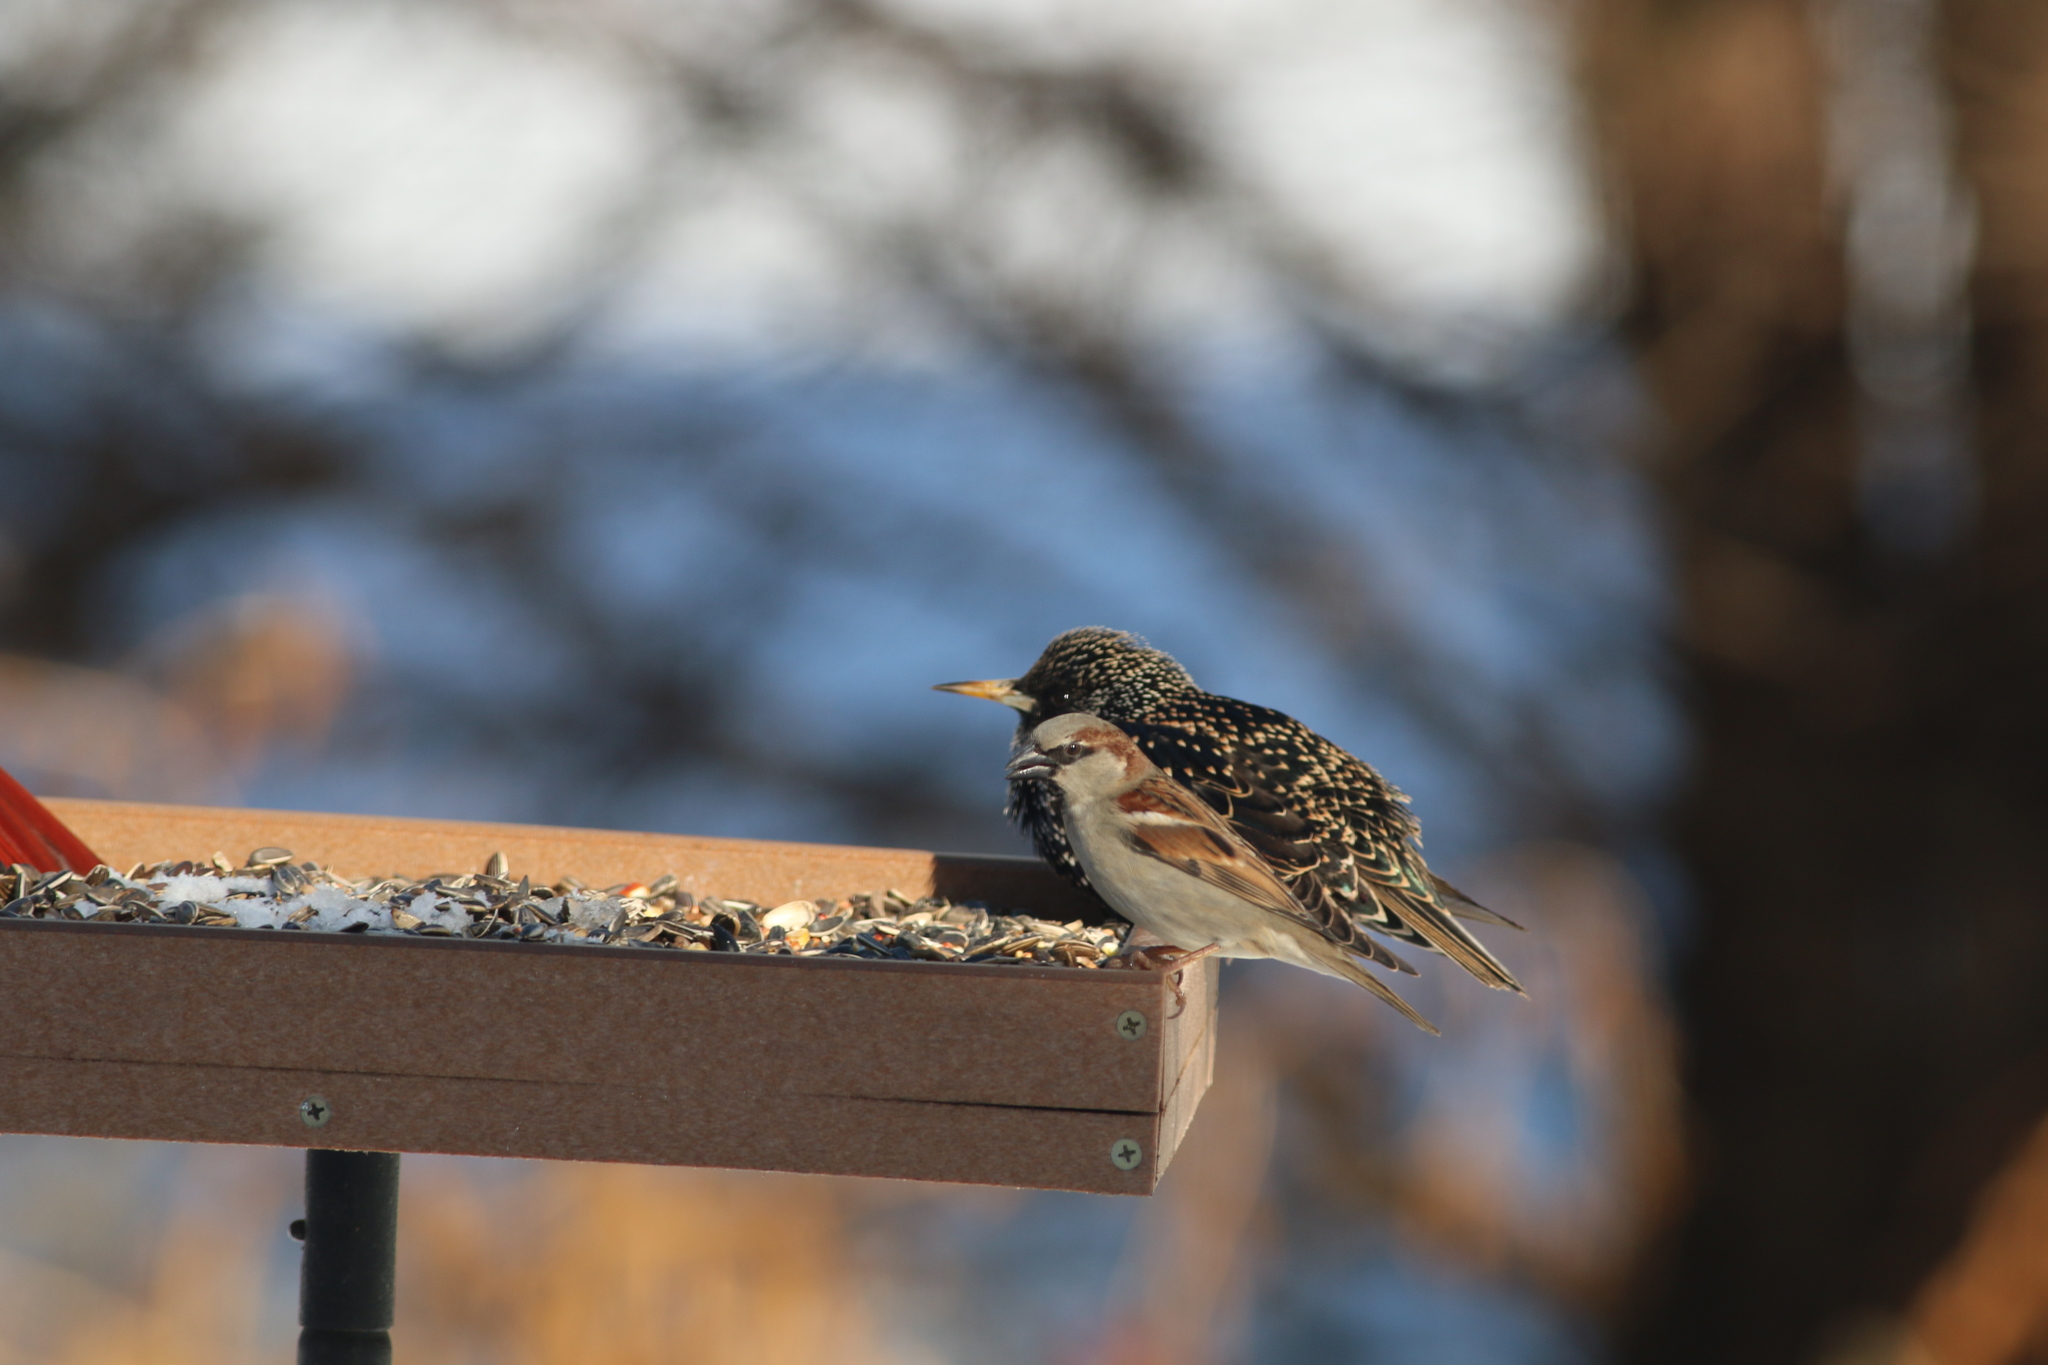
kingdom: Animalia
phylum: Chordata
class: Aves
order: Passeriformes
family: Passeridae
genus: Passer
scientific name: Passer domesticus
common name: House sparrow
